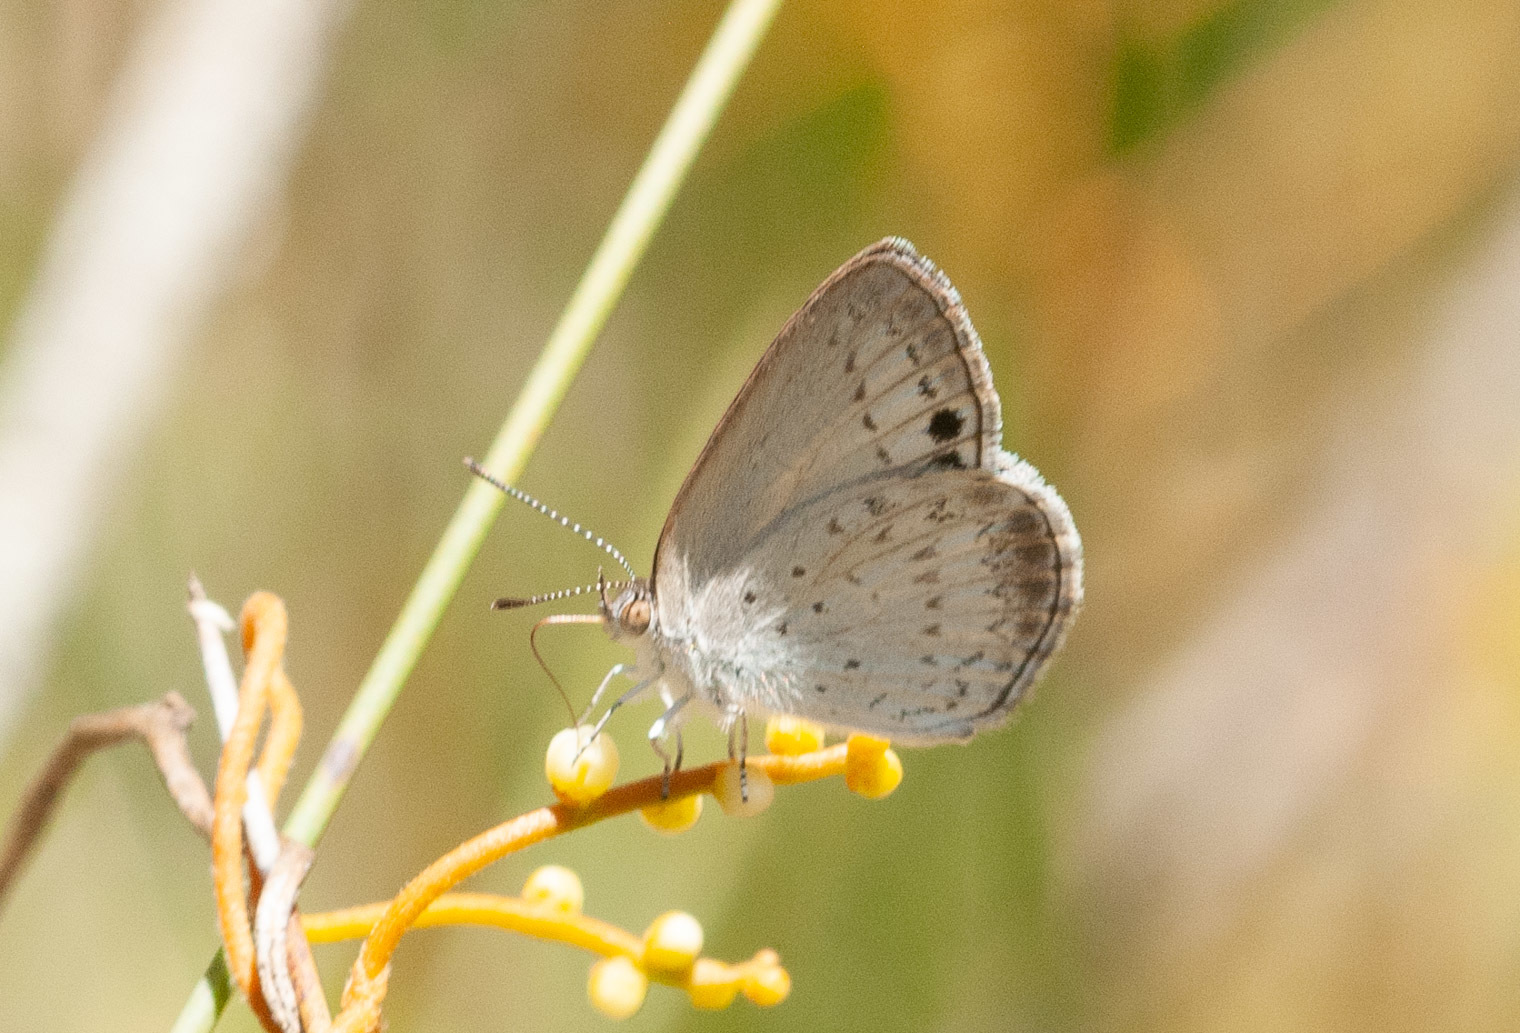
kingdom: Animalia
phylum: Arthropoda
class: Insecta
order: Lepidoptera
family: Lycaenidae
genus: Candalides
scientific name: Candalides
